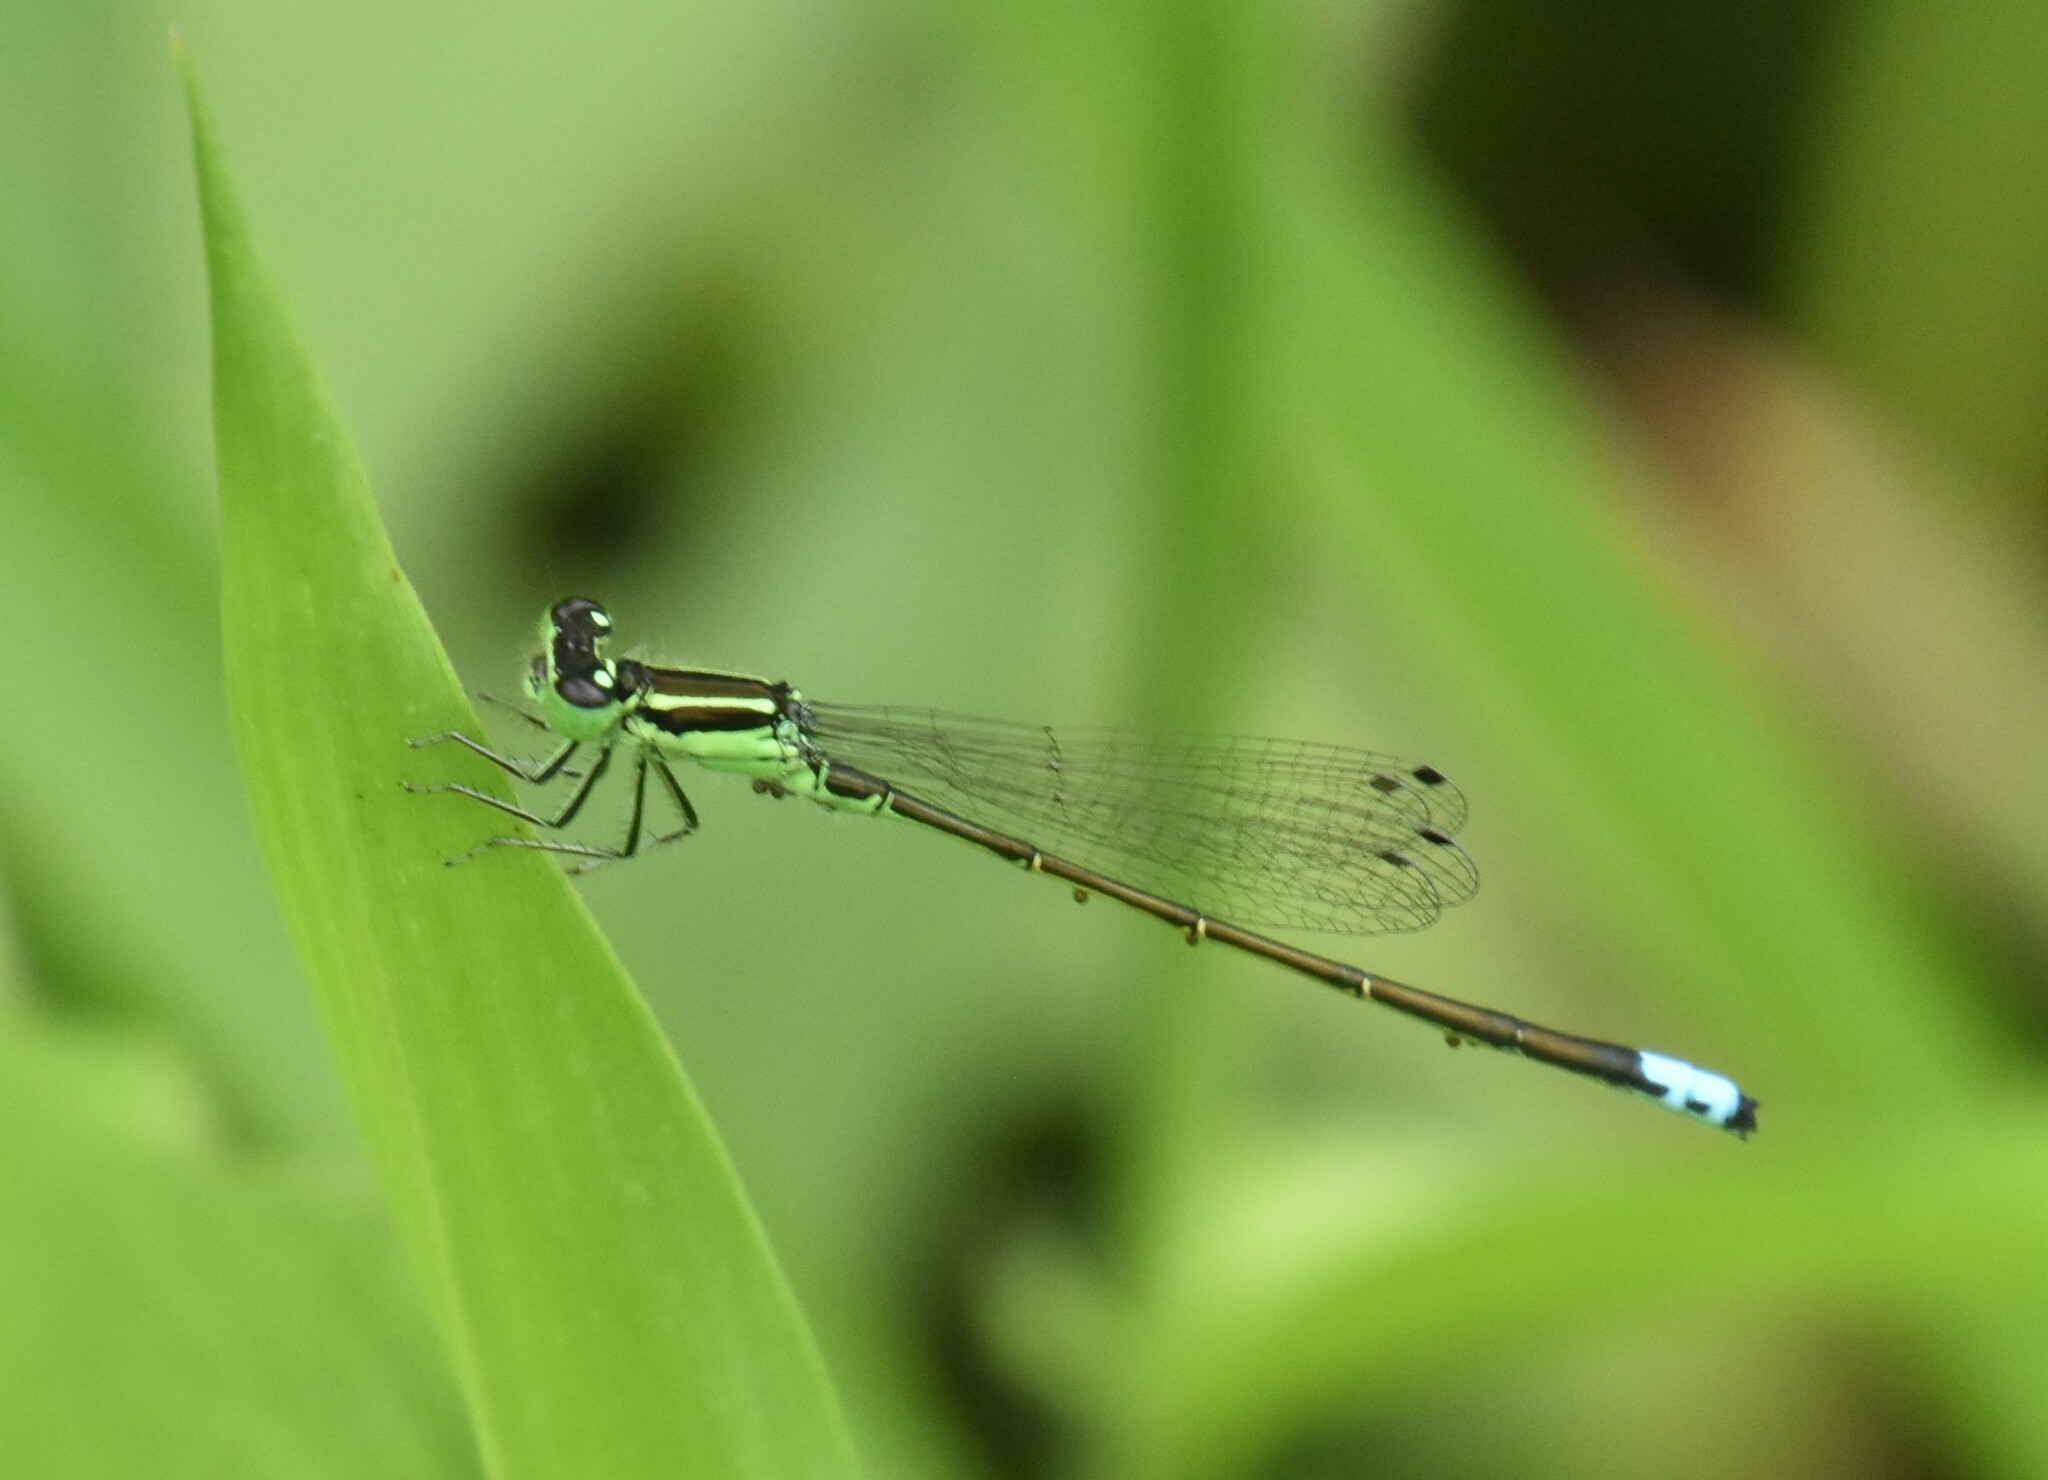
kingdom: Animalia
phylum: Arthropoda
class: Insecta
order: Odonata
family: Coenagrionidae
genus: Ischnura
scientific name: Ischnura verticalis
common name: Eastern forktail
